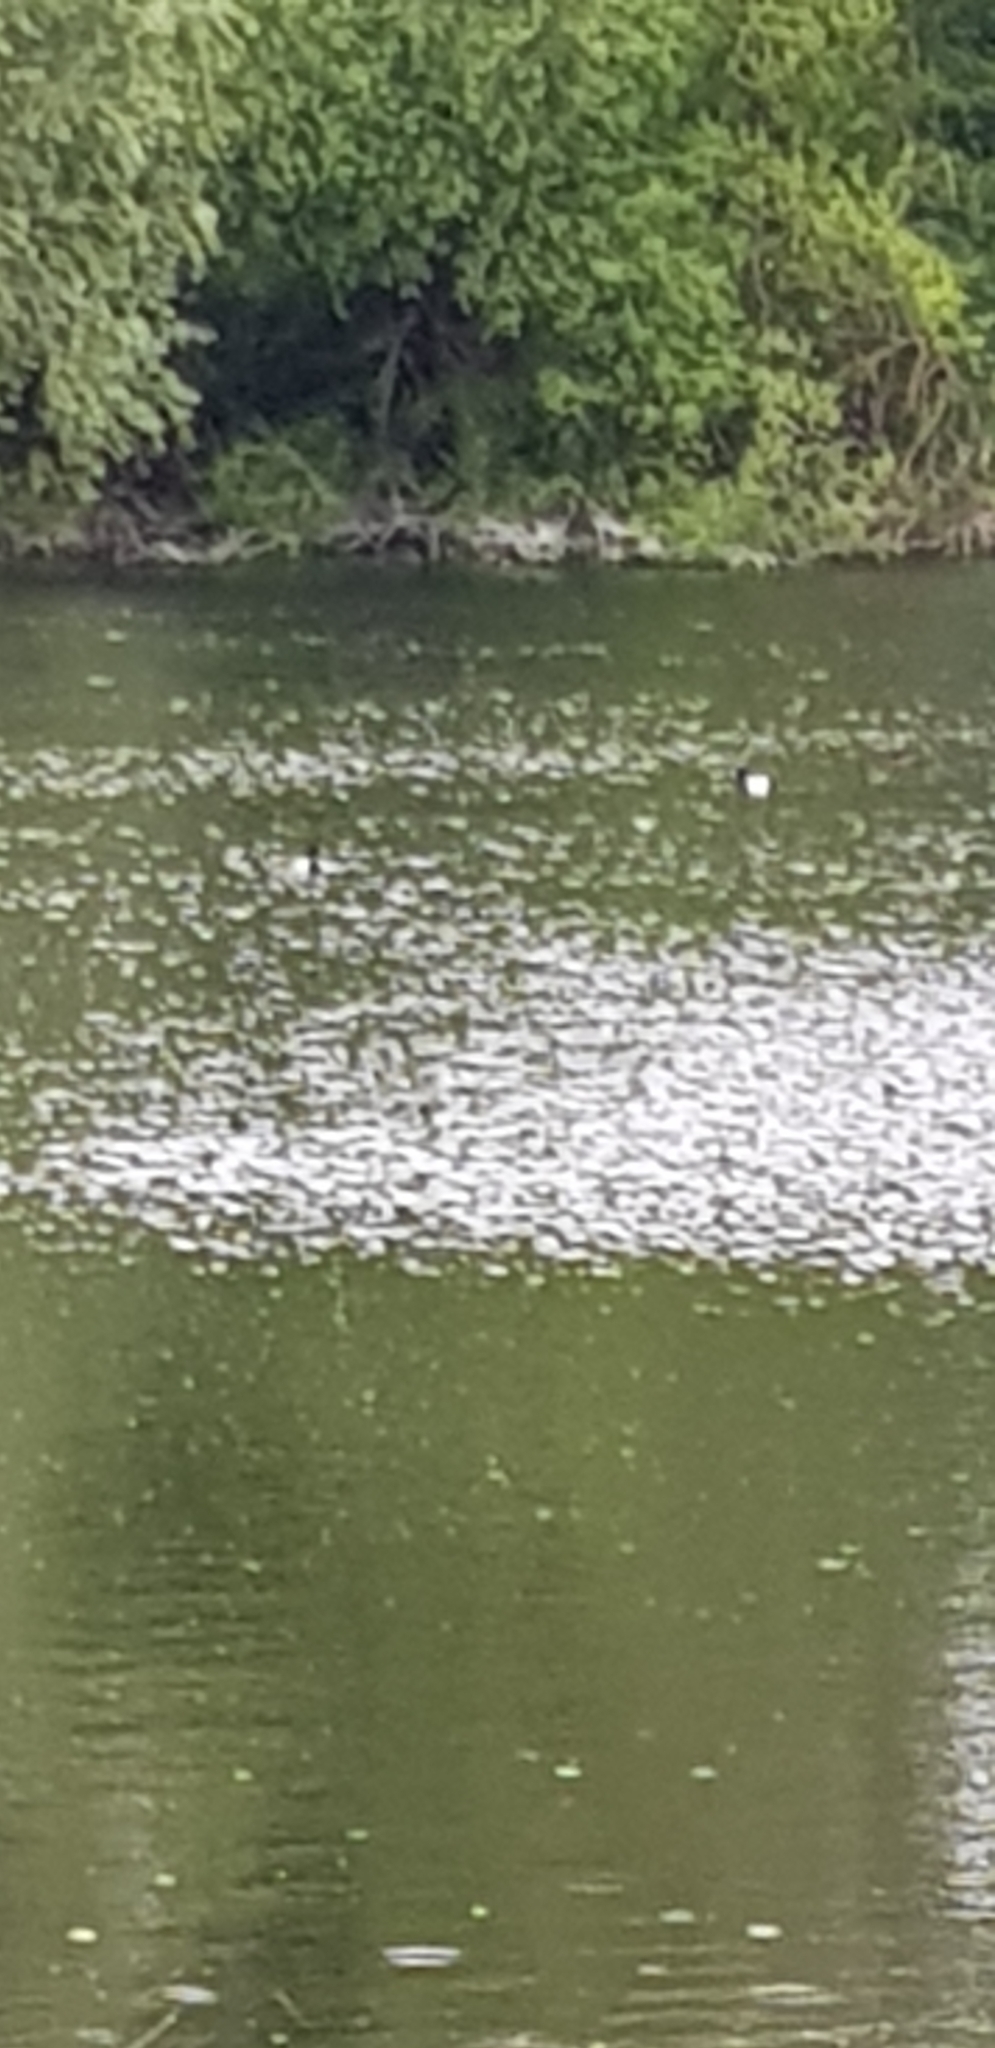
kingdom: Animalia
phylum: Chordata
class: Aves
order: Anseriformes
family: Anatidae
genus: Aythya
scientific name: Aythya fuligula
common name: Tufted duck
